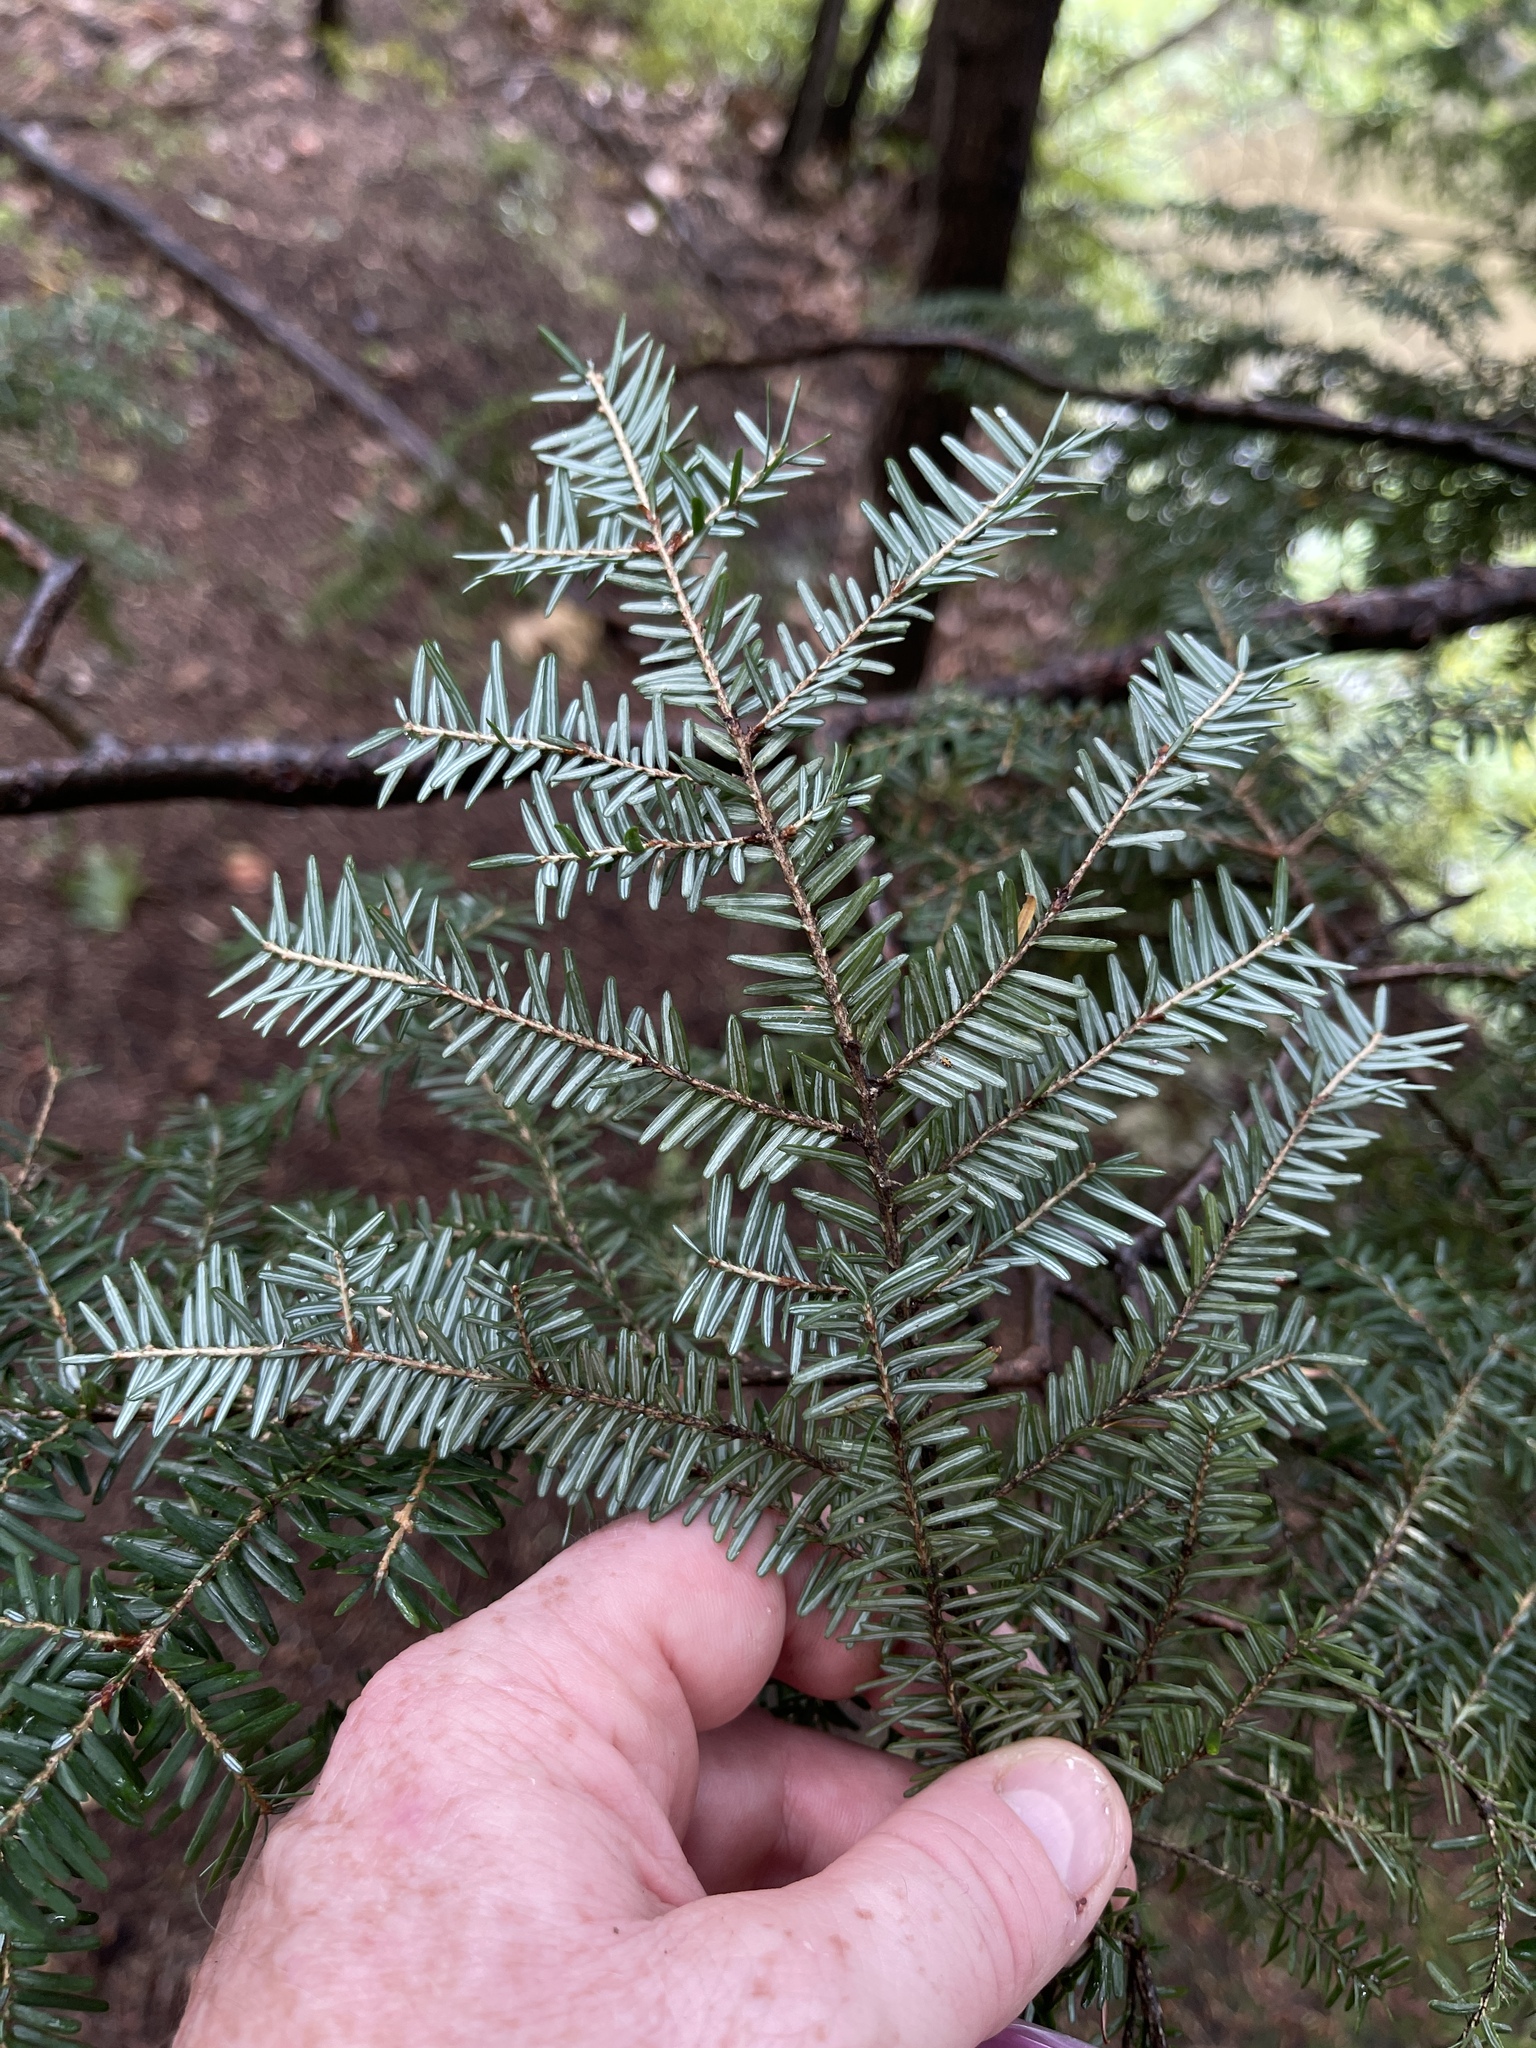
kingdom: Plantae
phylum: Tracheophyta
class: Pinopsida
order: Pinales
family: Pinaceae
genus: Tsuga
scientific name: Tsuga canadensis
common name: Eastern hemlock
